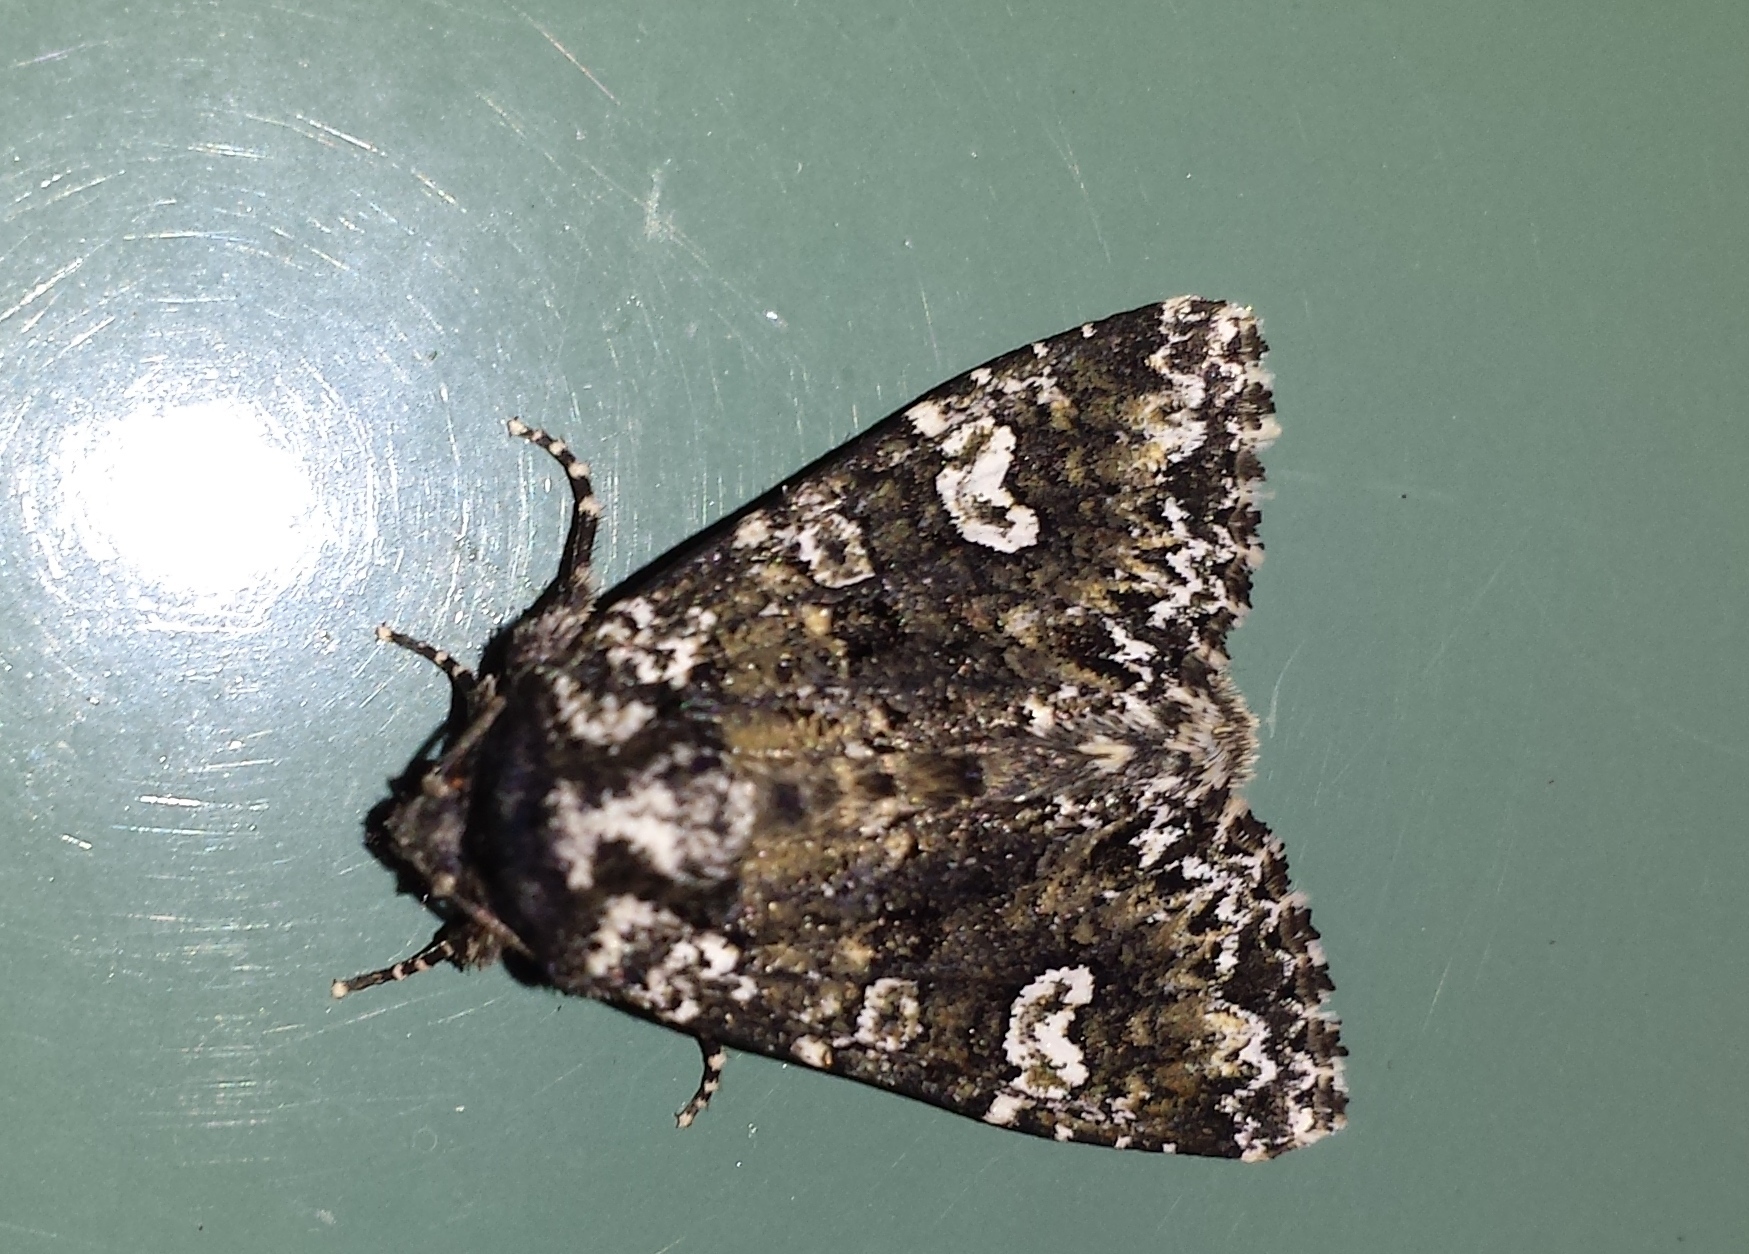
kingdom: Animalia
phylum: Arthropoda
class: Insecta
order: Lepidoptera
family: Noctuidae
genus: Melanchra
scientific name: Melanchra adjuncta
